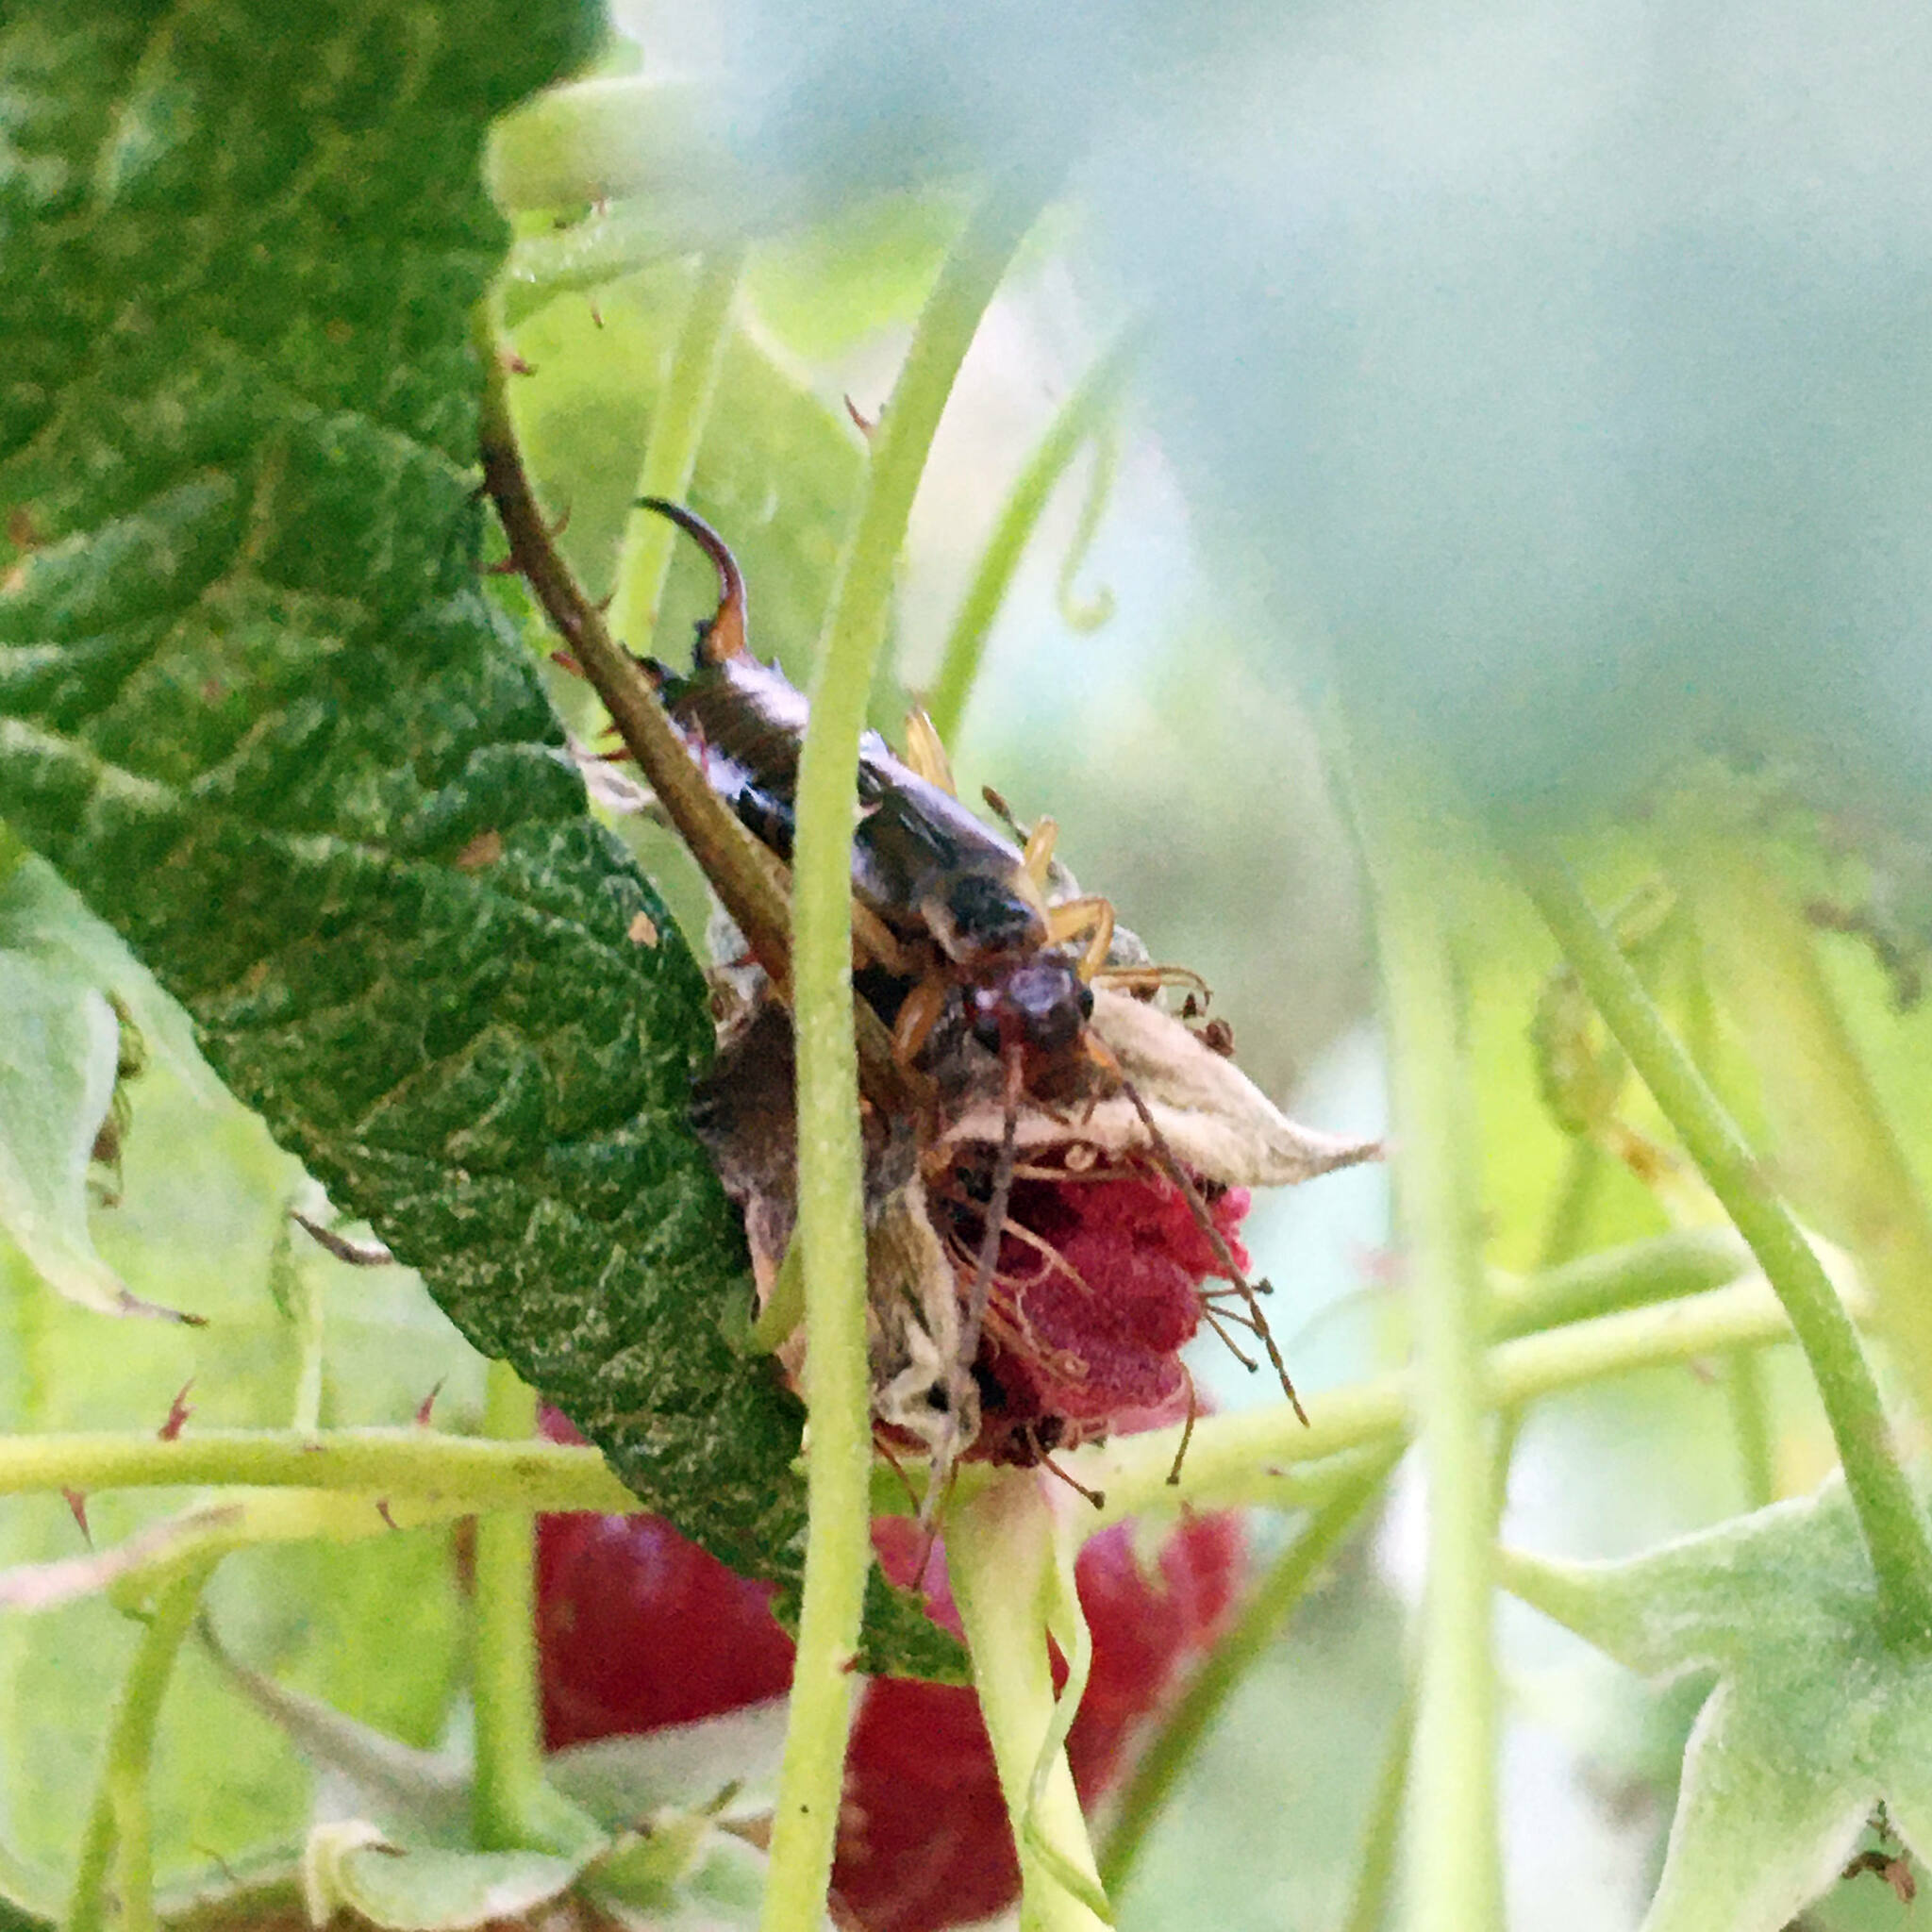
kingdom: Animalia
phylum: Arthropoda
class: Insecta
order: Dermaptera
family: Forficulidae
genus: Forficula
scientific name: Forficula
